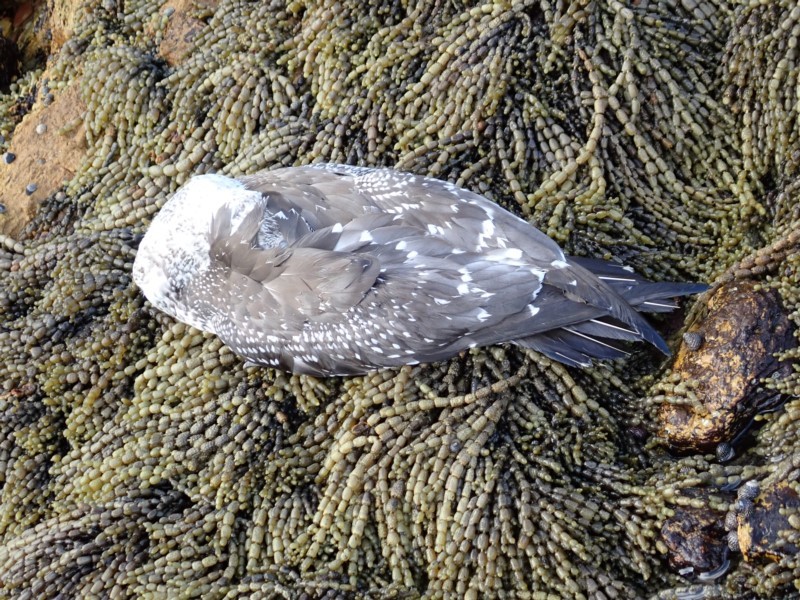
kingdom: Animalia
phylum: Chordata
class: Aves
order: Suliformes
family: Sulidae
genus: Morus
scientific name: Morus serrator
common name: Australasian gannet
